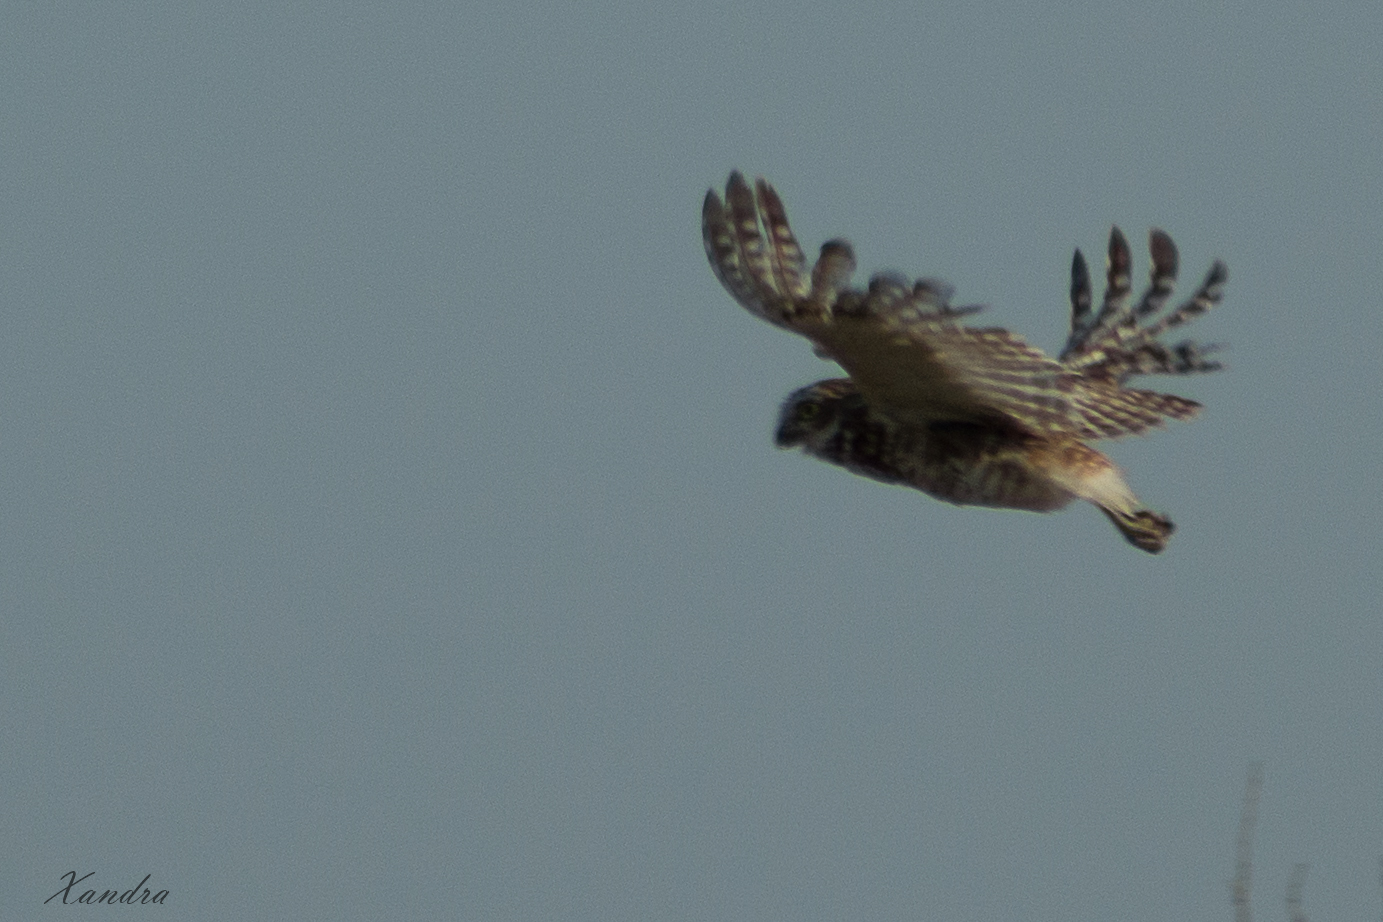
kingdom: Animalia
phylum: Chordata
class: Aves
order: Strigiformes
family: Strigidae
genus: Athene
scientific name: Athene cunicularia
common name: Burrowing owl
